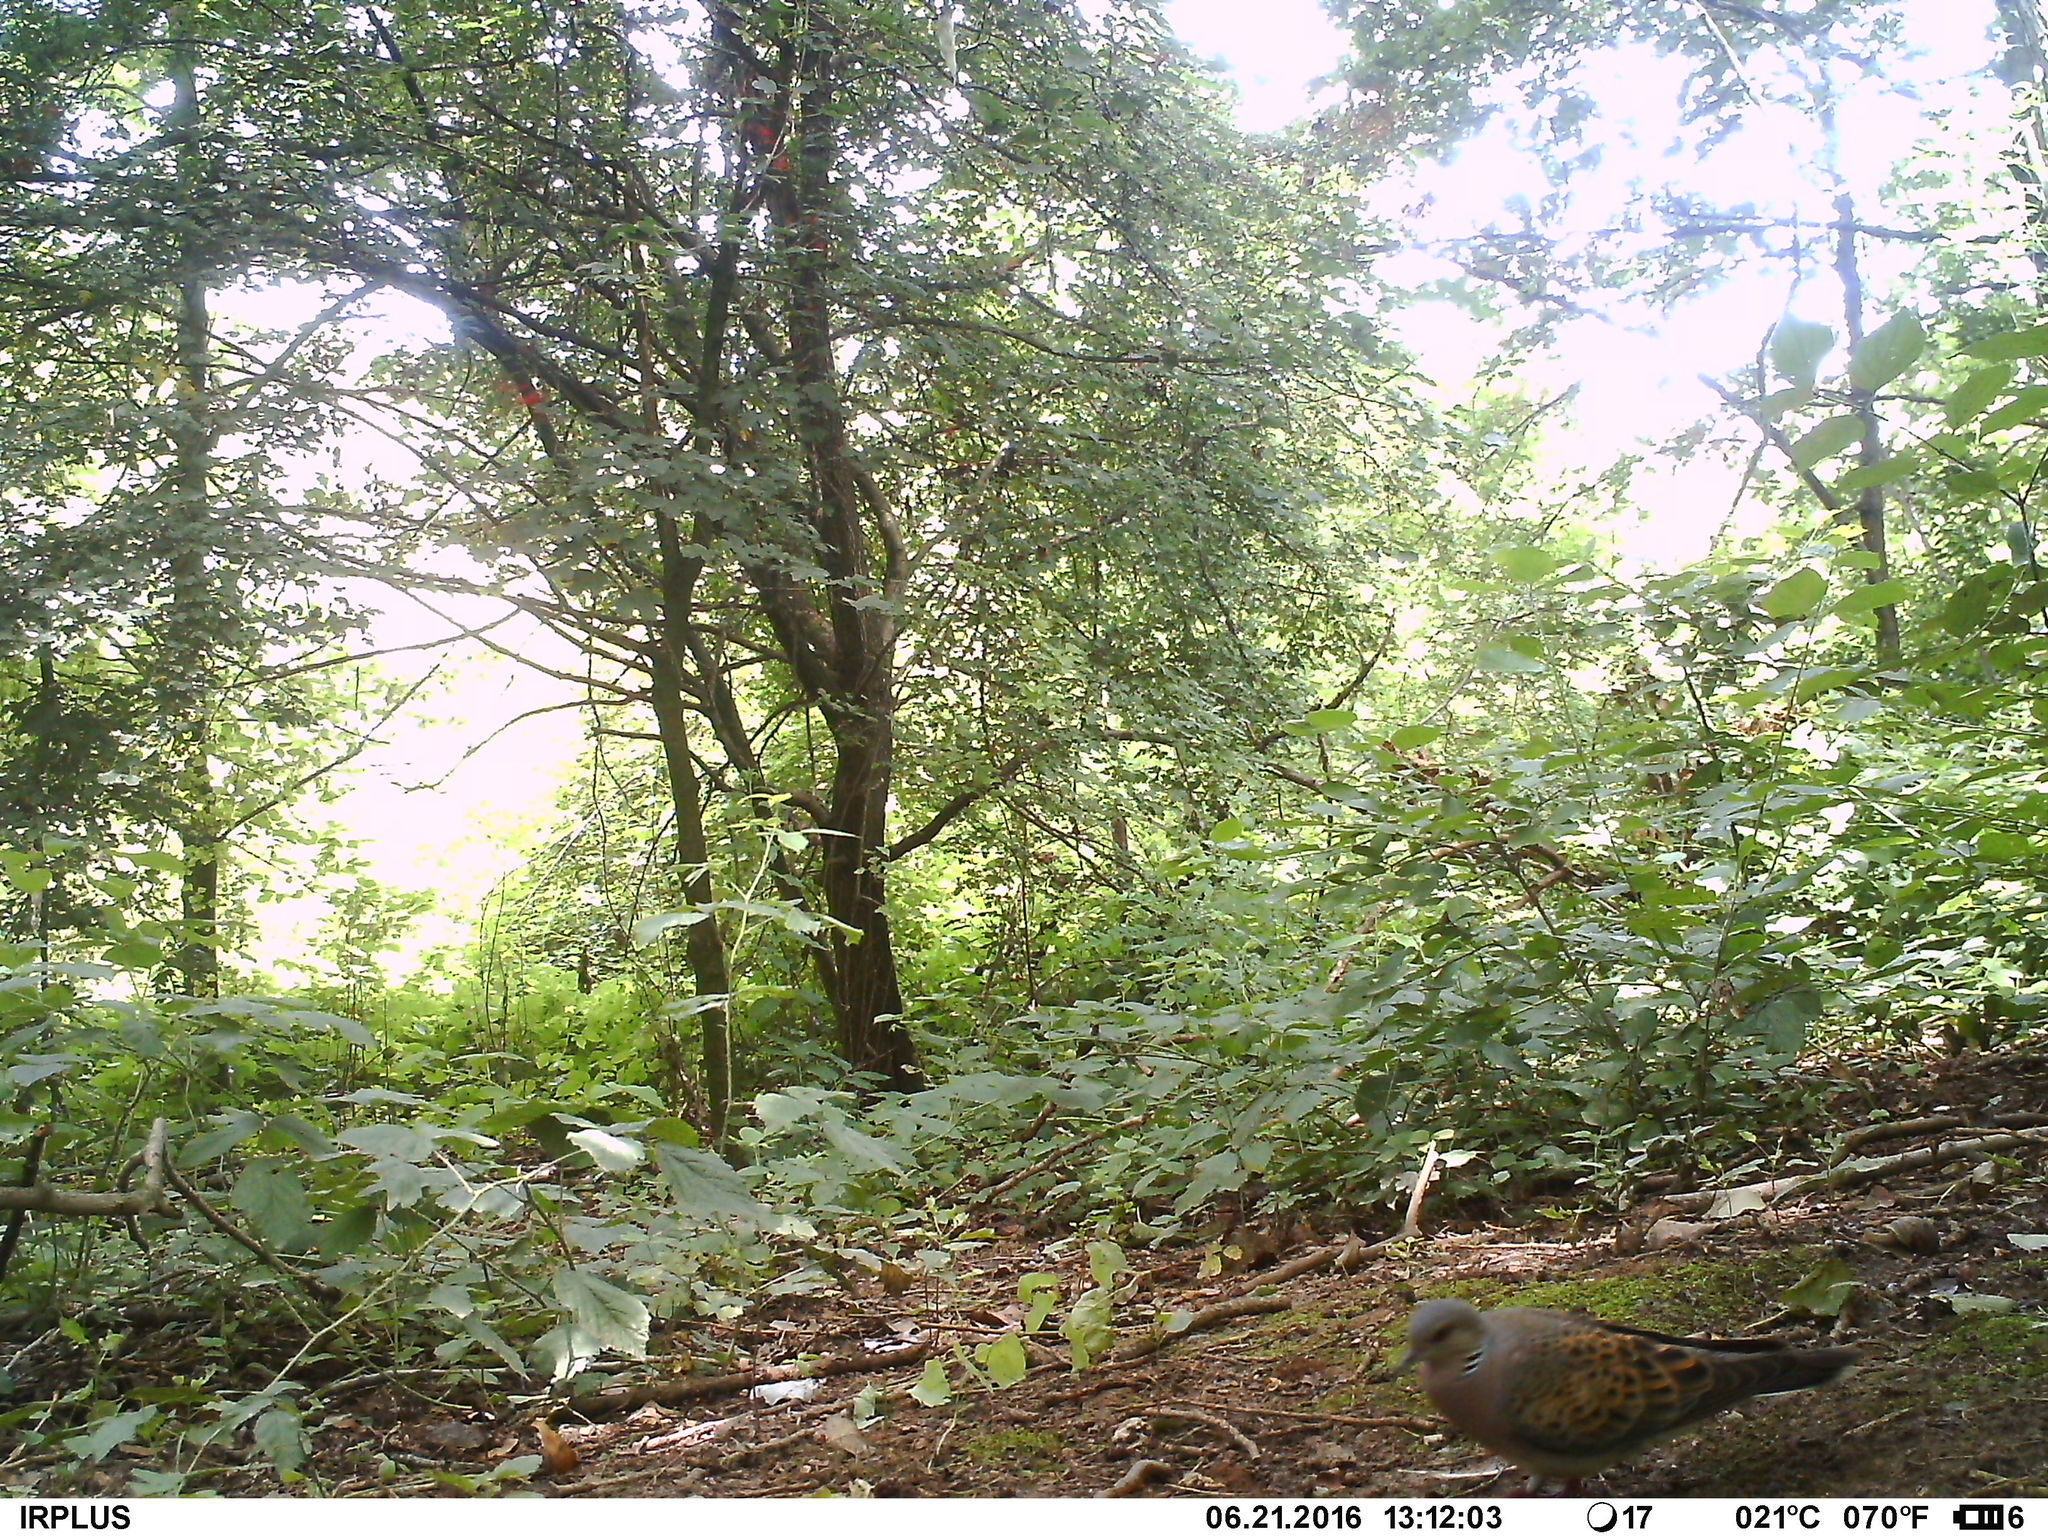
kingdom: Animalia
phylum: Chordata
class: Aves
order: Columbiformes
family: Columbidae
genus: Streptopelia
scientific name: Streptopelia turtur
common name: European turtle dove
